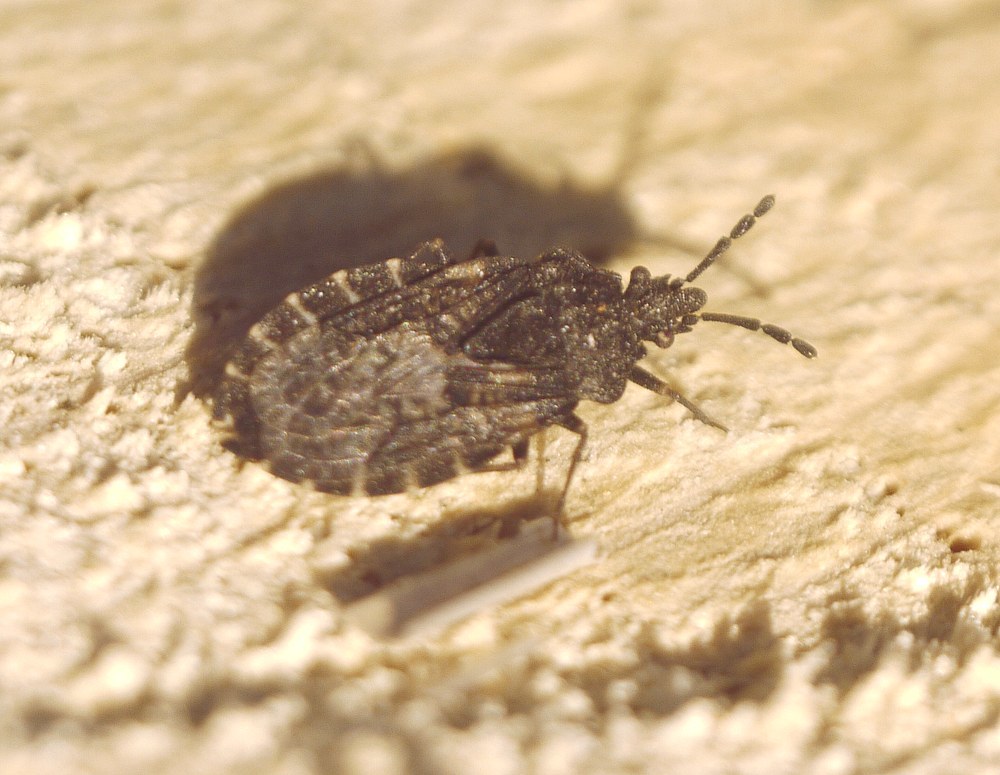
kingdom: Animalia
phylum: Arthropoda
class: Insecta
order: Hemiptera
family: Aradidae
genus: Aradus
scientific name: Aradus bimaculatus
